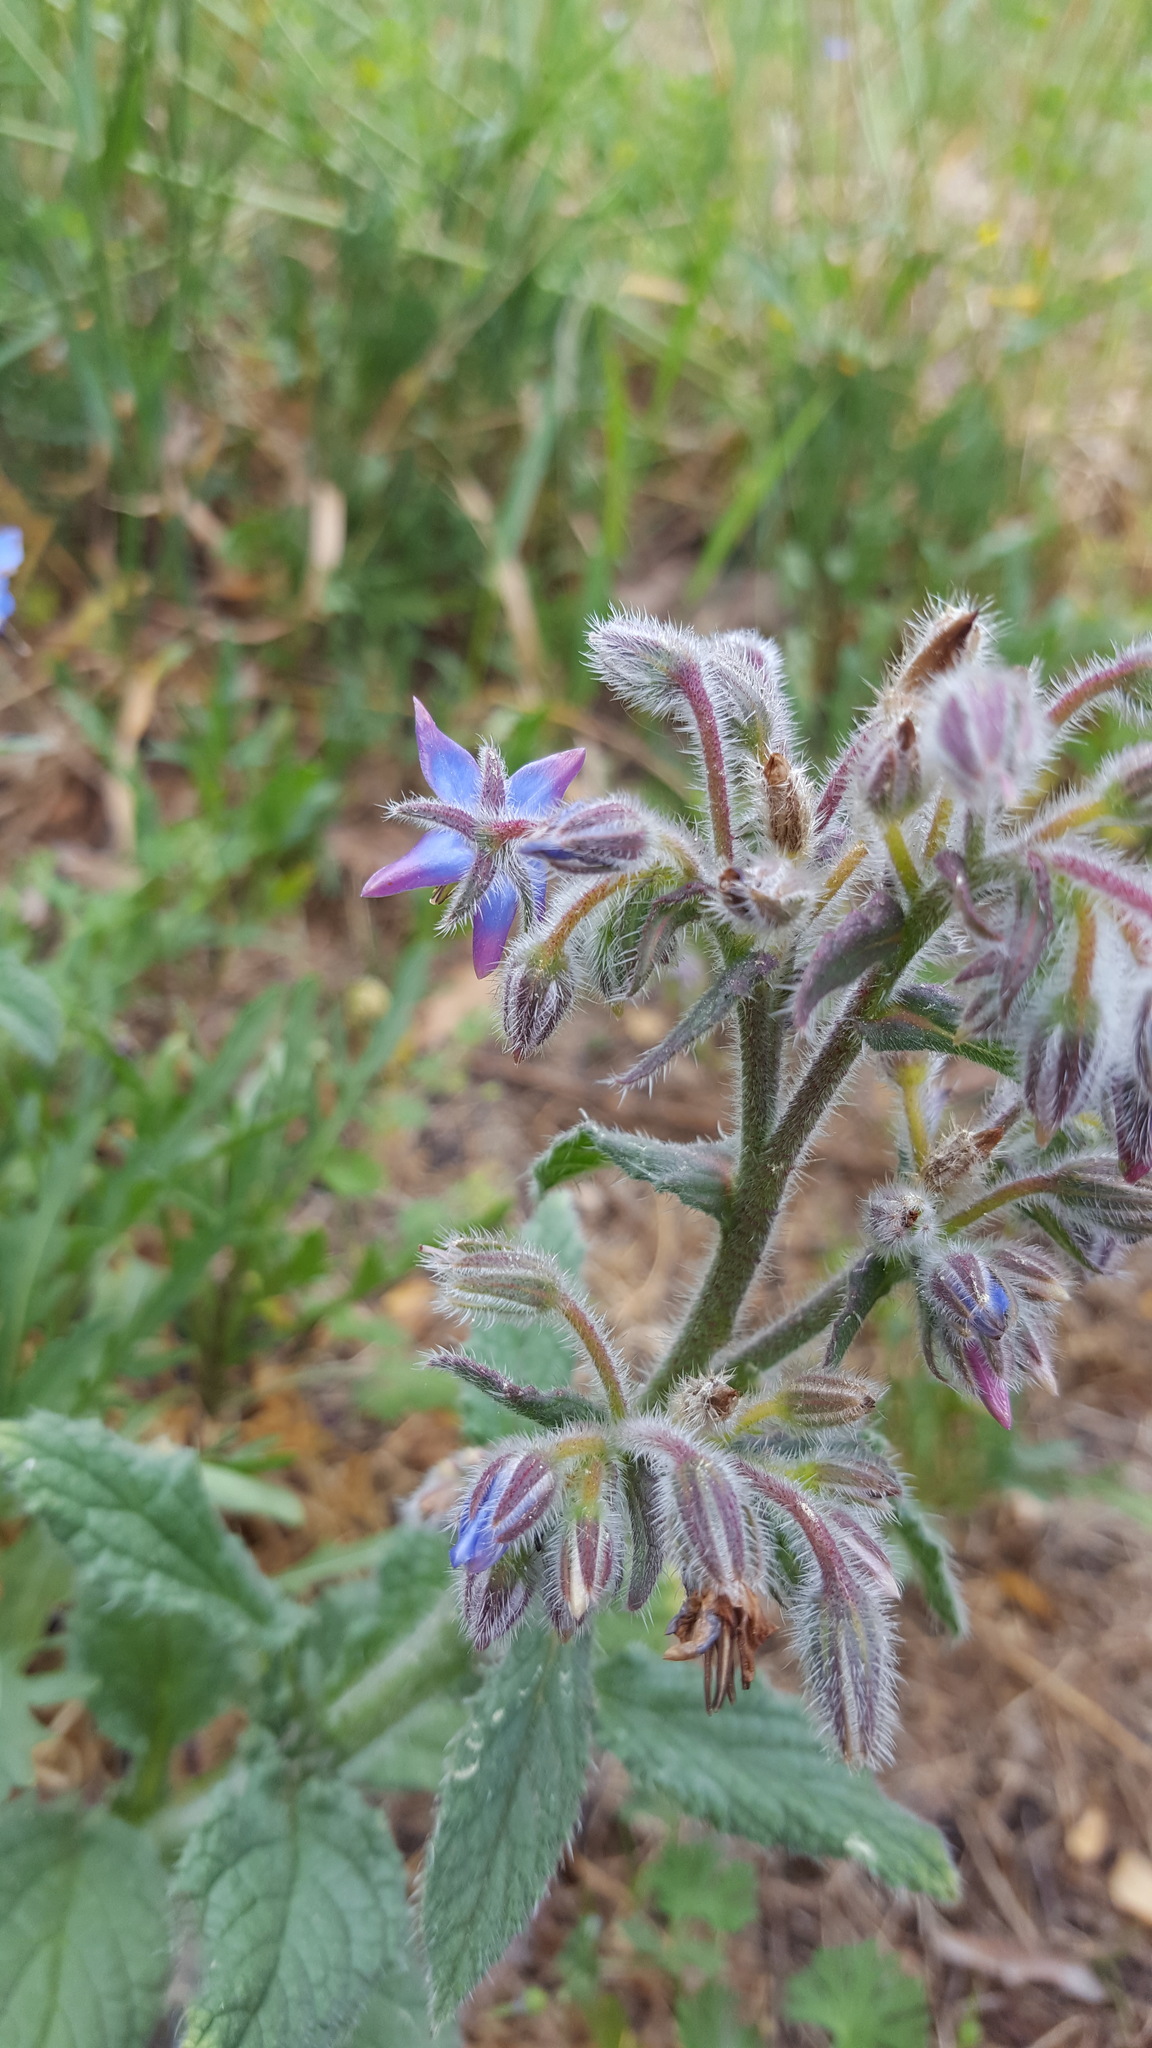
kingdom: Plantae
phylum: Tracheophyta
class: Magnoliopsida
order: Boraginales
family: Boraginaceae
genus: Borago
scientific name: Borago officinalis
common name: Borage
